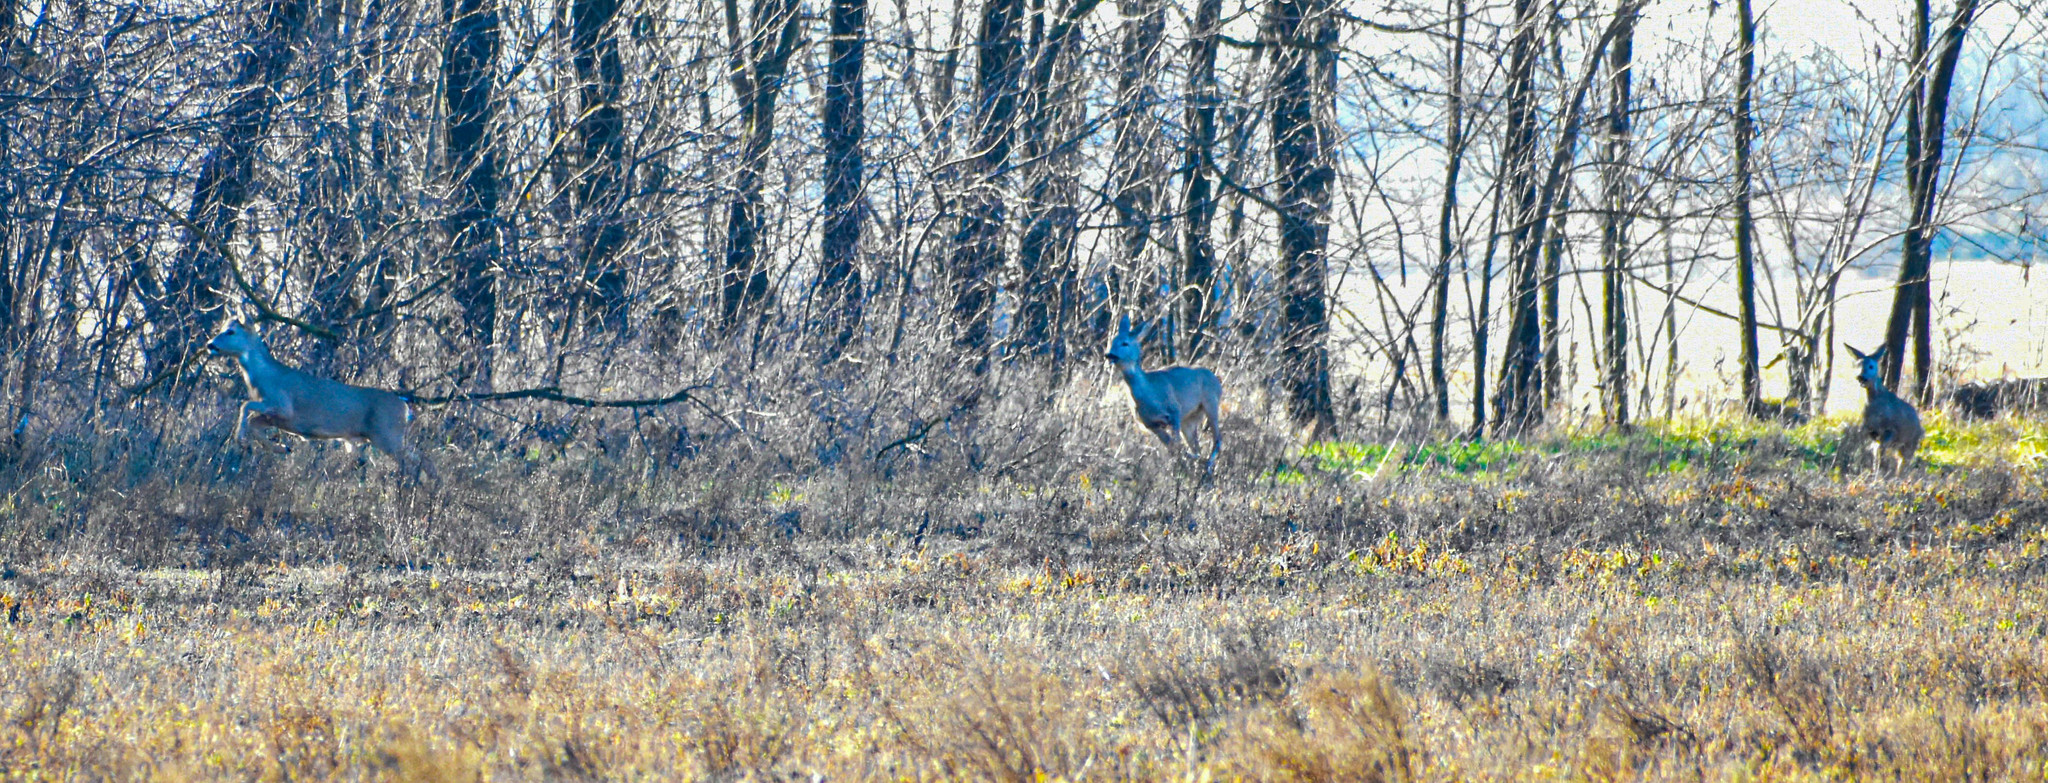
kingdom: Animalia
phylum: Chordata
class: Mammalia
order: Artiodactyla
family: Cervidae
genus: Capreolus
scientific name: Capreolus capreolus
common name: Western roe deer
